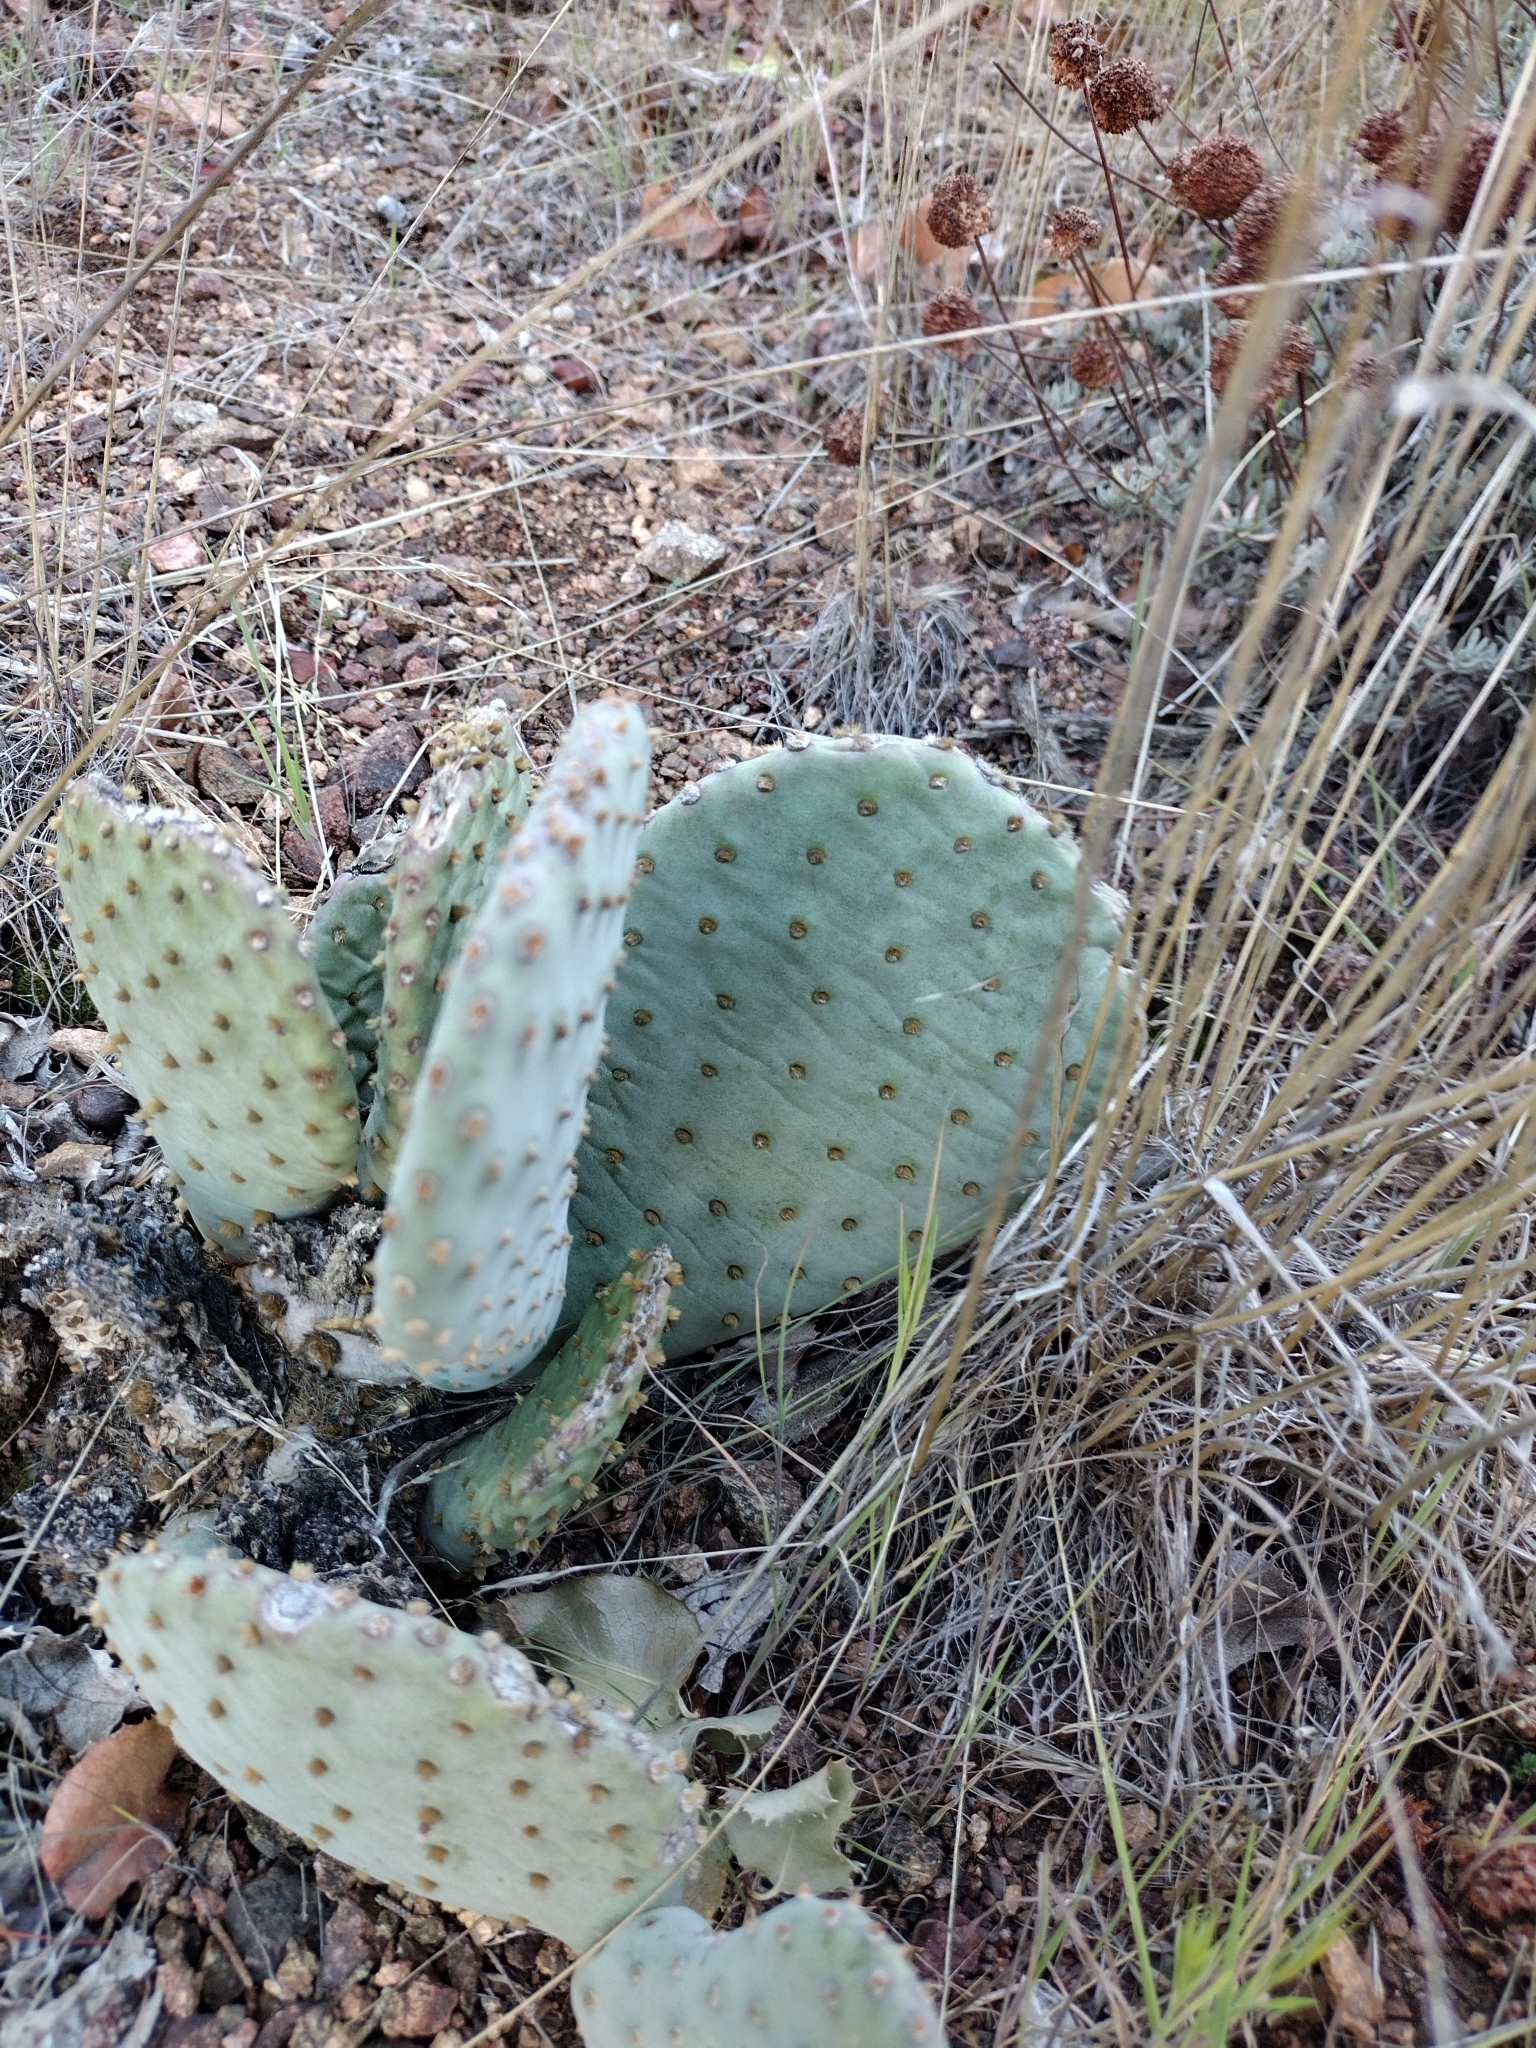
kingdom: Plantae
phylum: Tracheophyta
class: Magnoliopsida
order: Caryophyllales
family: Cactaceae
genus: Opuntia
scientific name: Opuntia basilaris
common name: Beavertail prickly-pear
